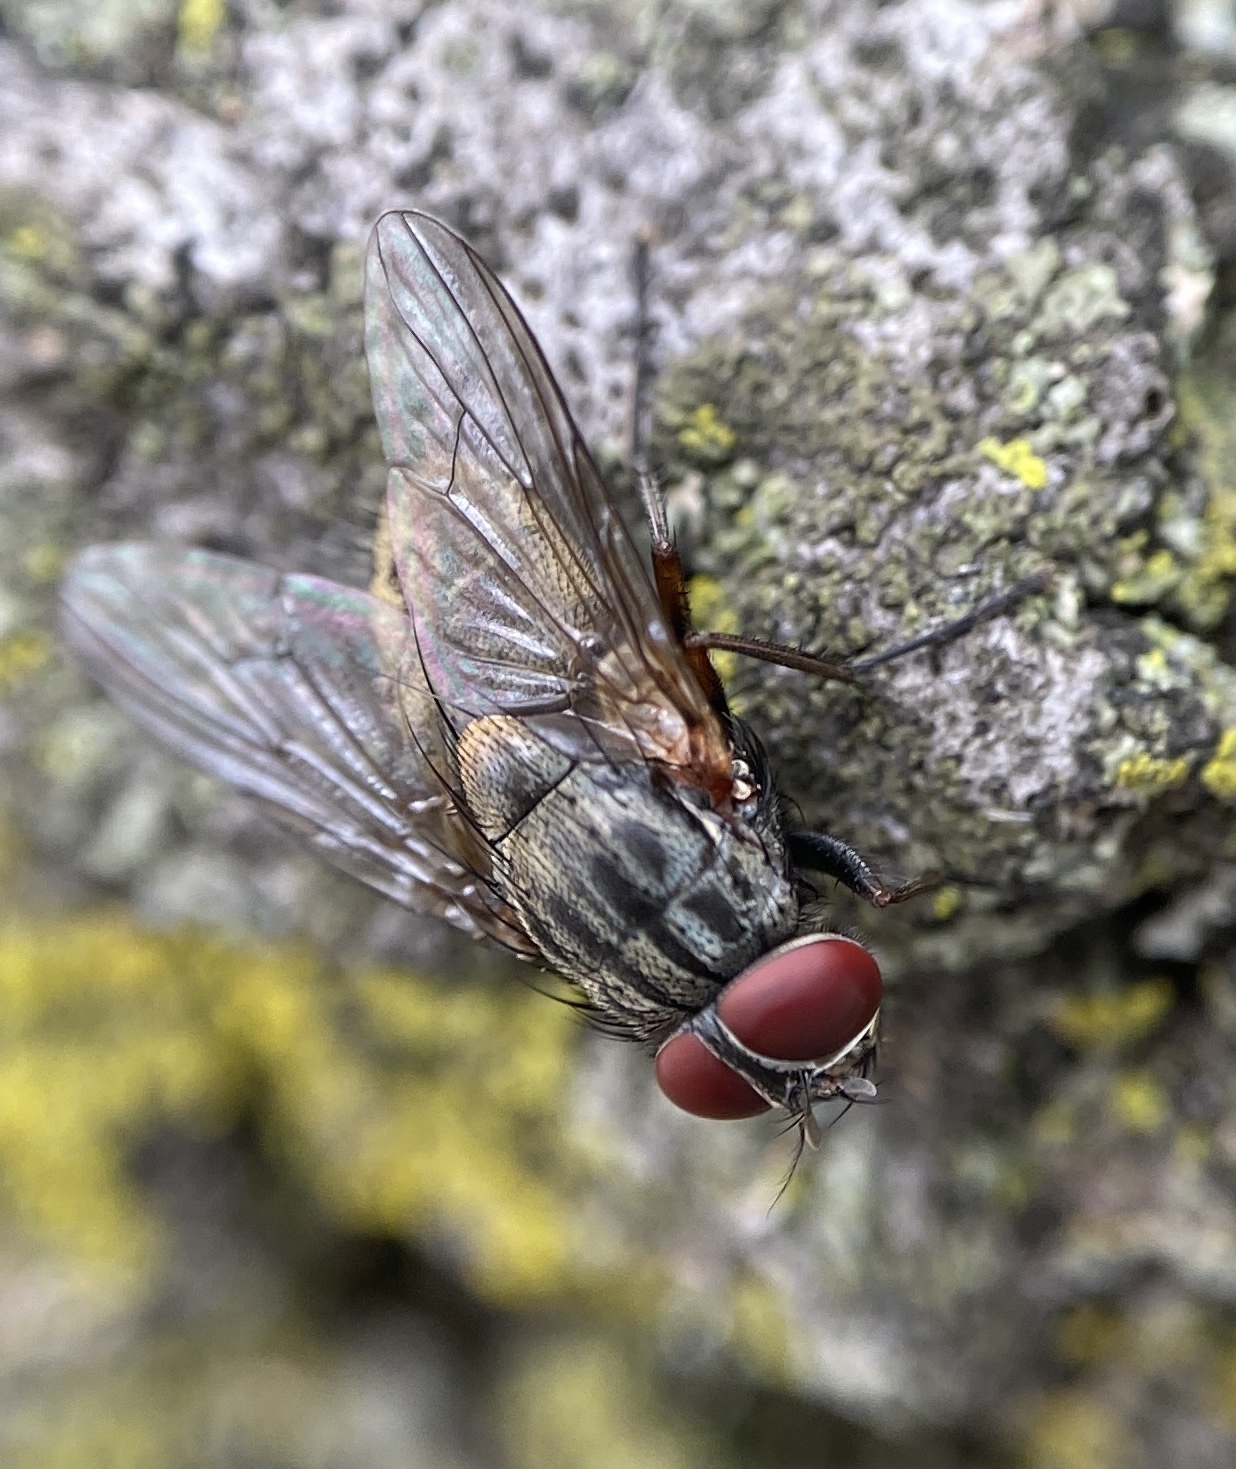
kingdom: Animalia
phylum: Arthropoda
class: Insecta
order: Diptera
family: Muscidae
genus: Muscina
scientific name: Muscina stabulans
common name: False stable fly
